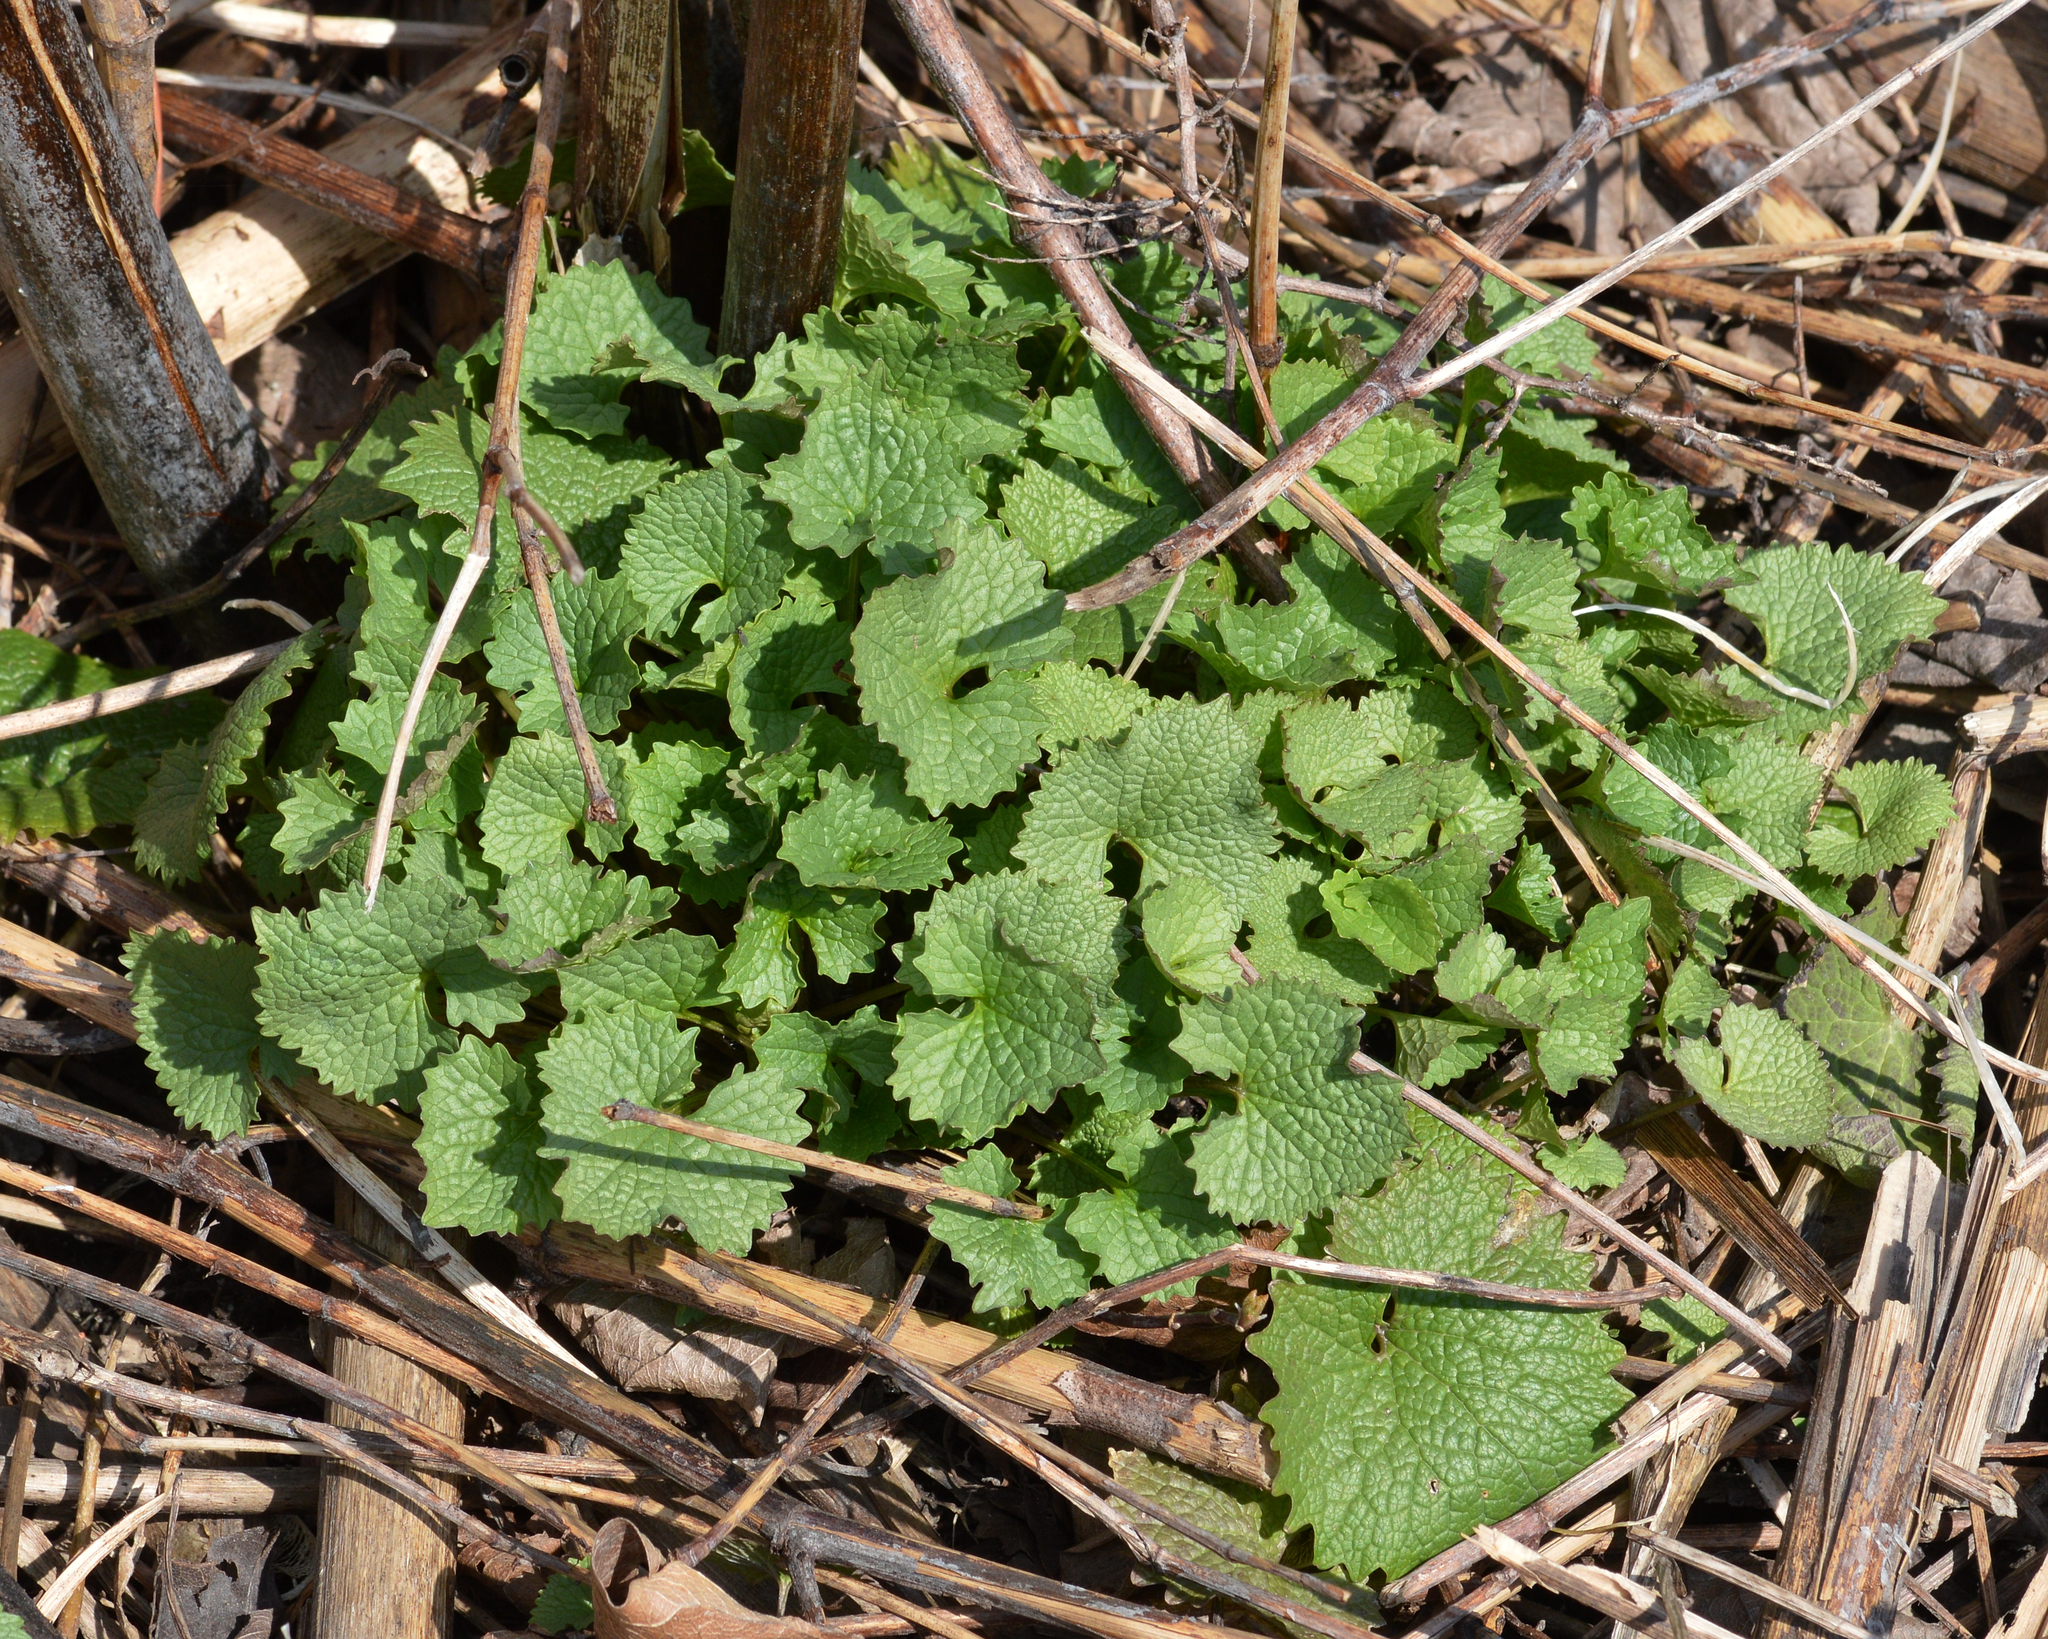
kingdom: Plantae
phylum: Tracheophyta
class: Magnoliopsida
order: Brassicales
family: Brassicaceae
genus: Alliaria
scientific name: Alliaria petiolata
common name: Garlic mustard
